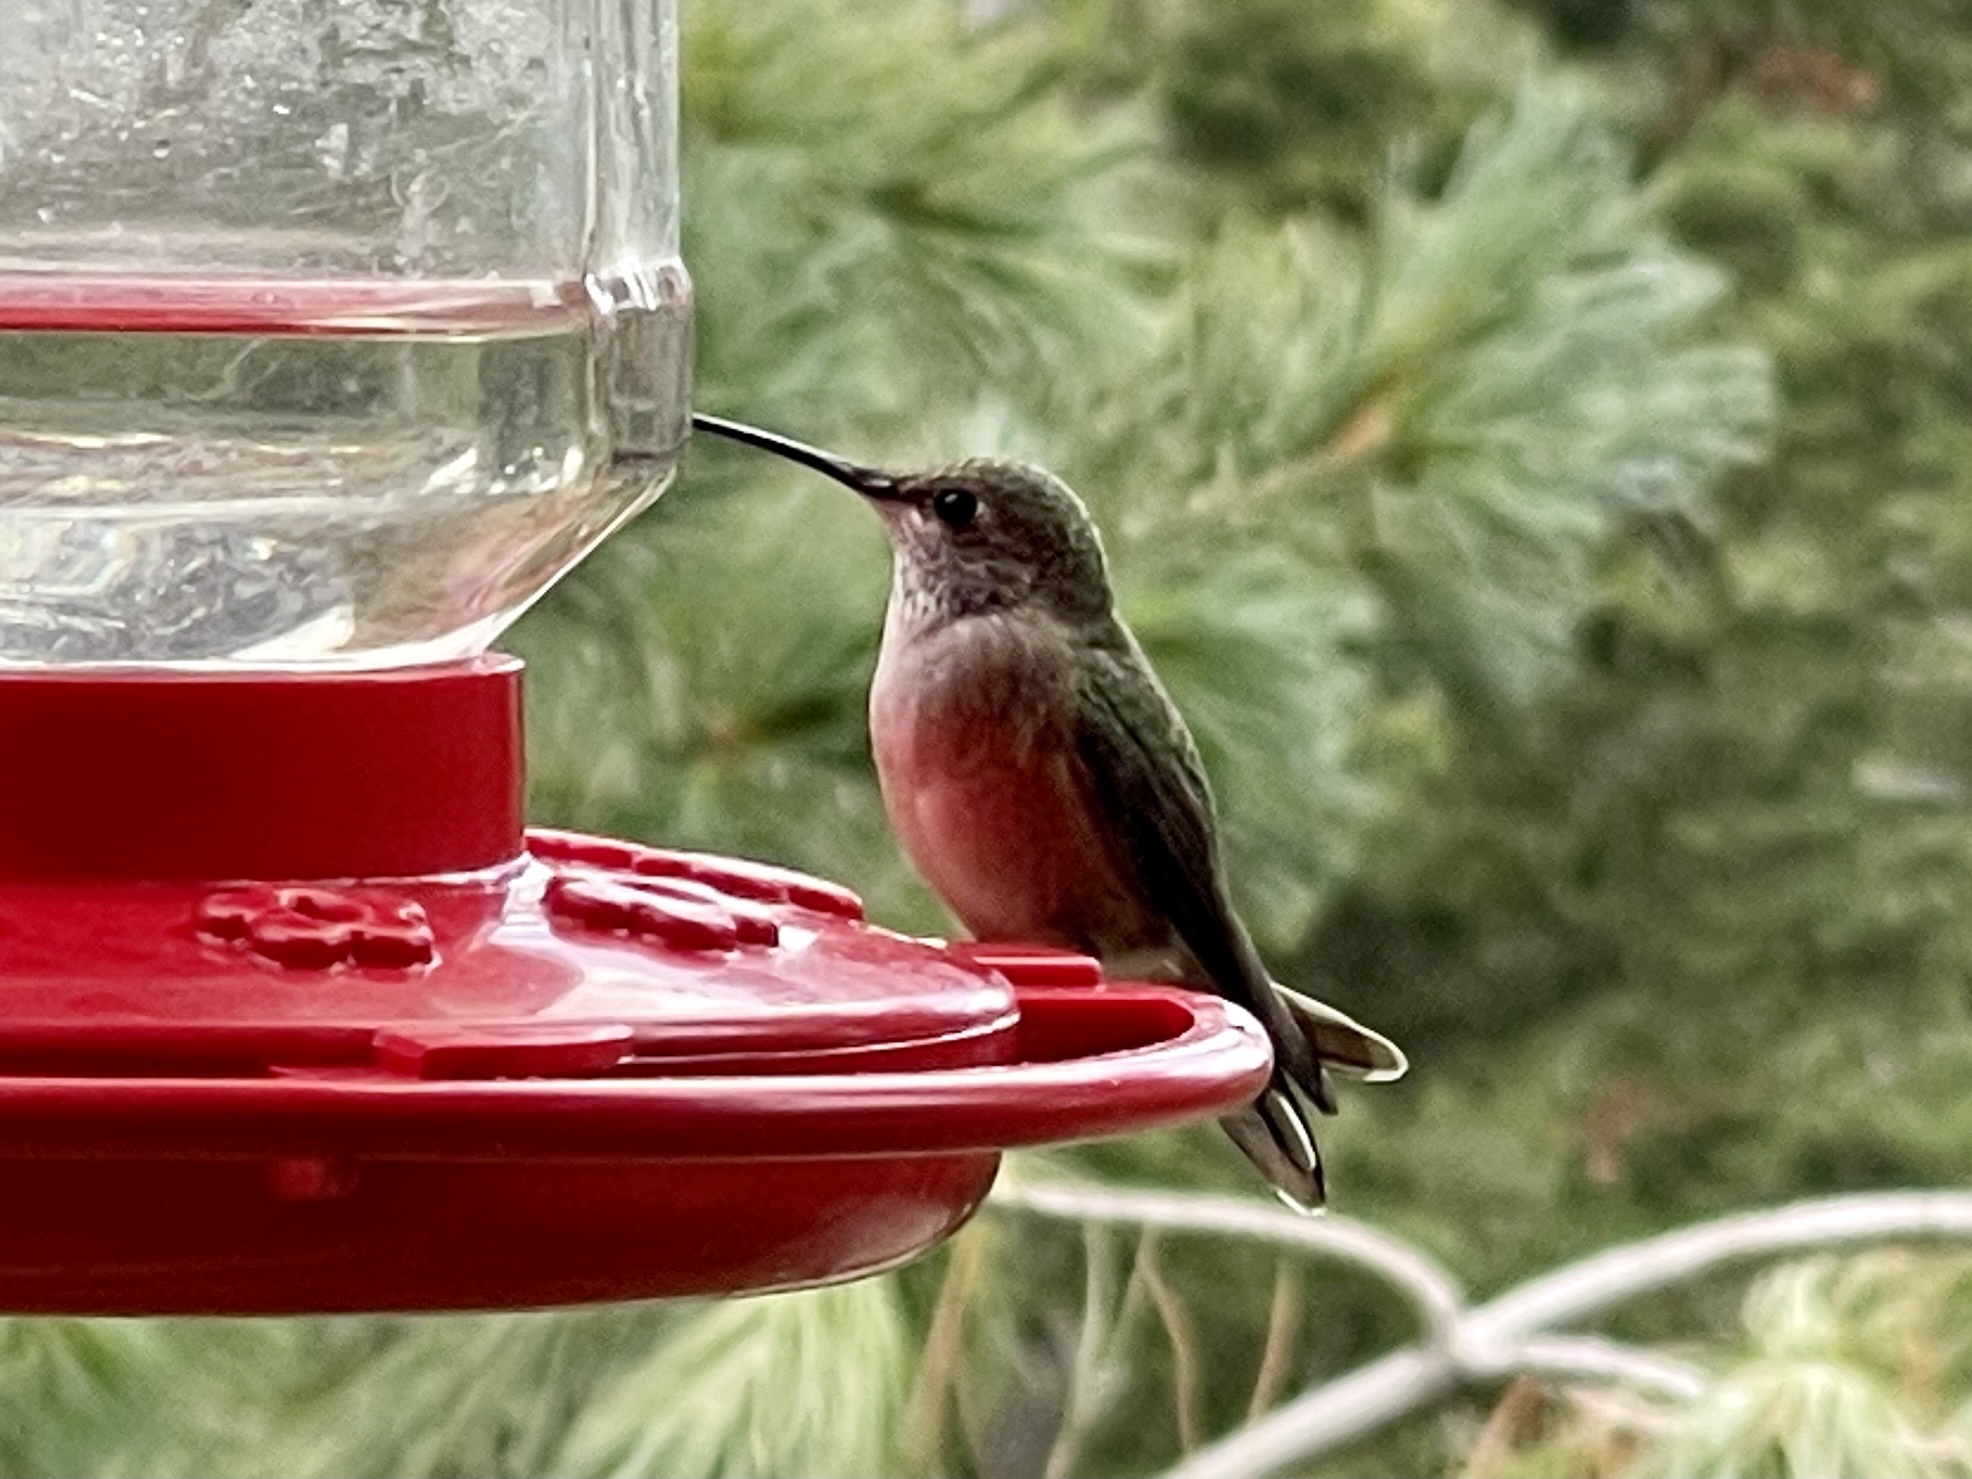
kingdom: Animalia
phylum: Chordata
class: Aves
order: Apodiformes
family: Trochilidae
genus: Selasphorus
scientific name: Selasphorus platycercus
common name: Broad-tailed hummingbird
